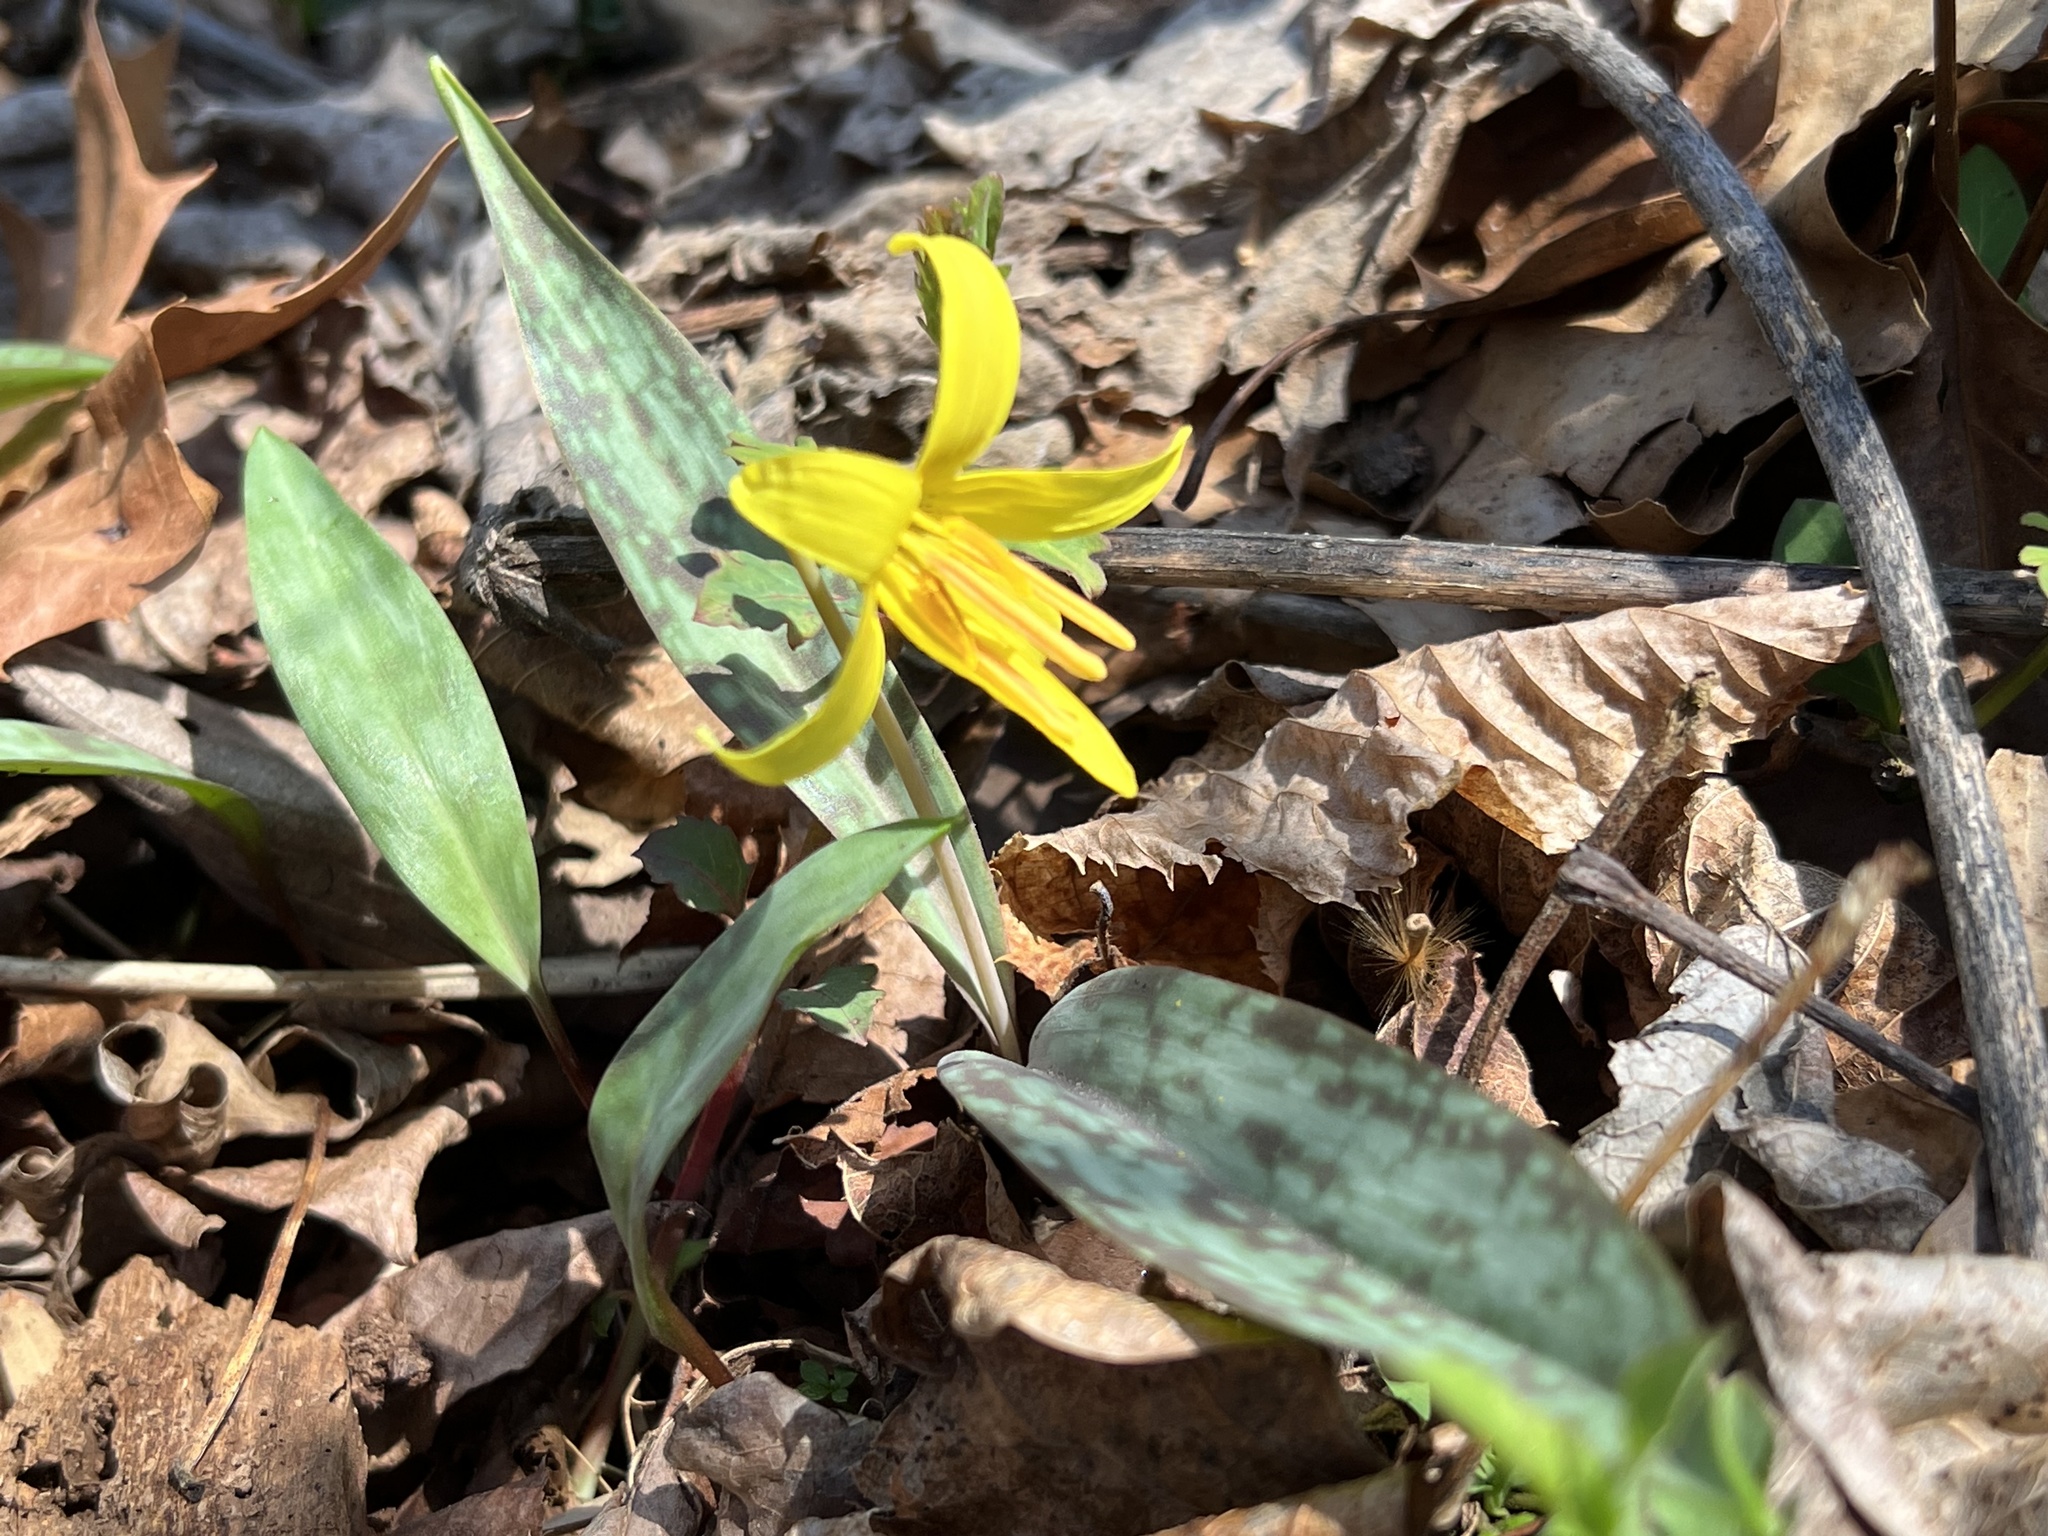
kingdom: Plantae
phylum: Tracheophyta
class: Liliopsida
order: Liliales
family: Liliaceae
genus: Erythronium
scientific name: Erythronium americanum
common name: Yellow adder's-tongue
